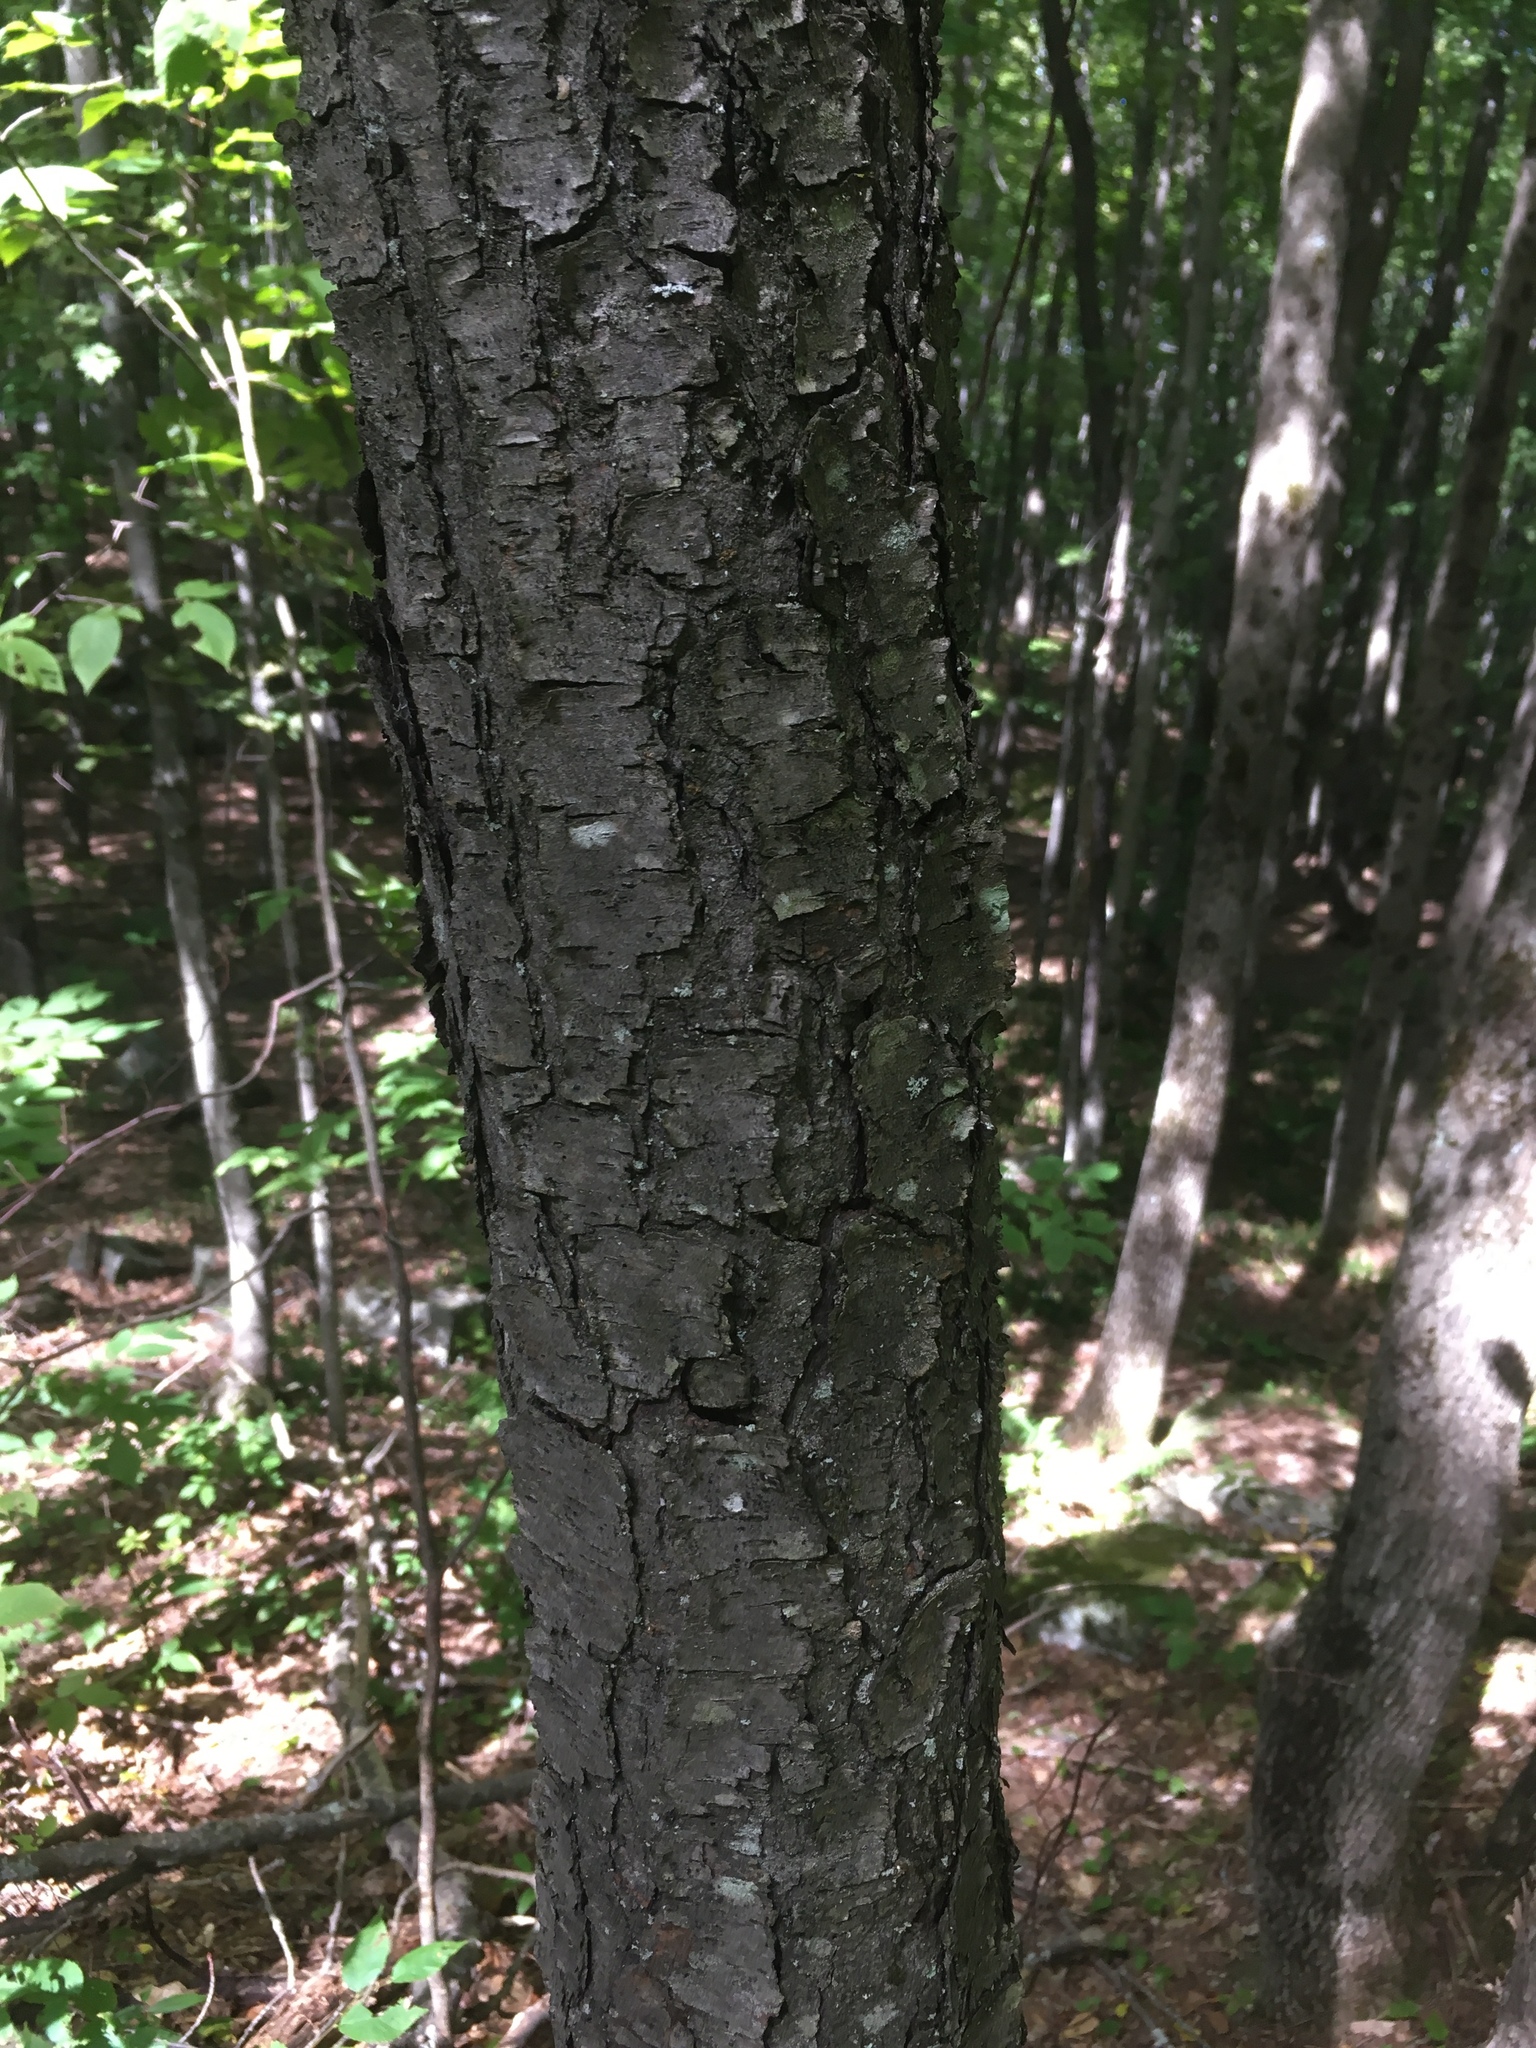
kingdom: Plantae
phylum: Tracheophyta
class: Magnoliopsida
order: Rosales
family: Rosaceae
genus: Prunus
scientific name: Prunus serotina
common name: Black cherry
